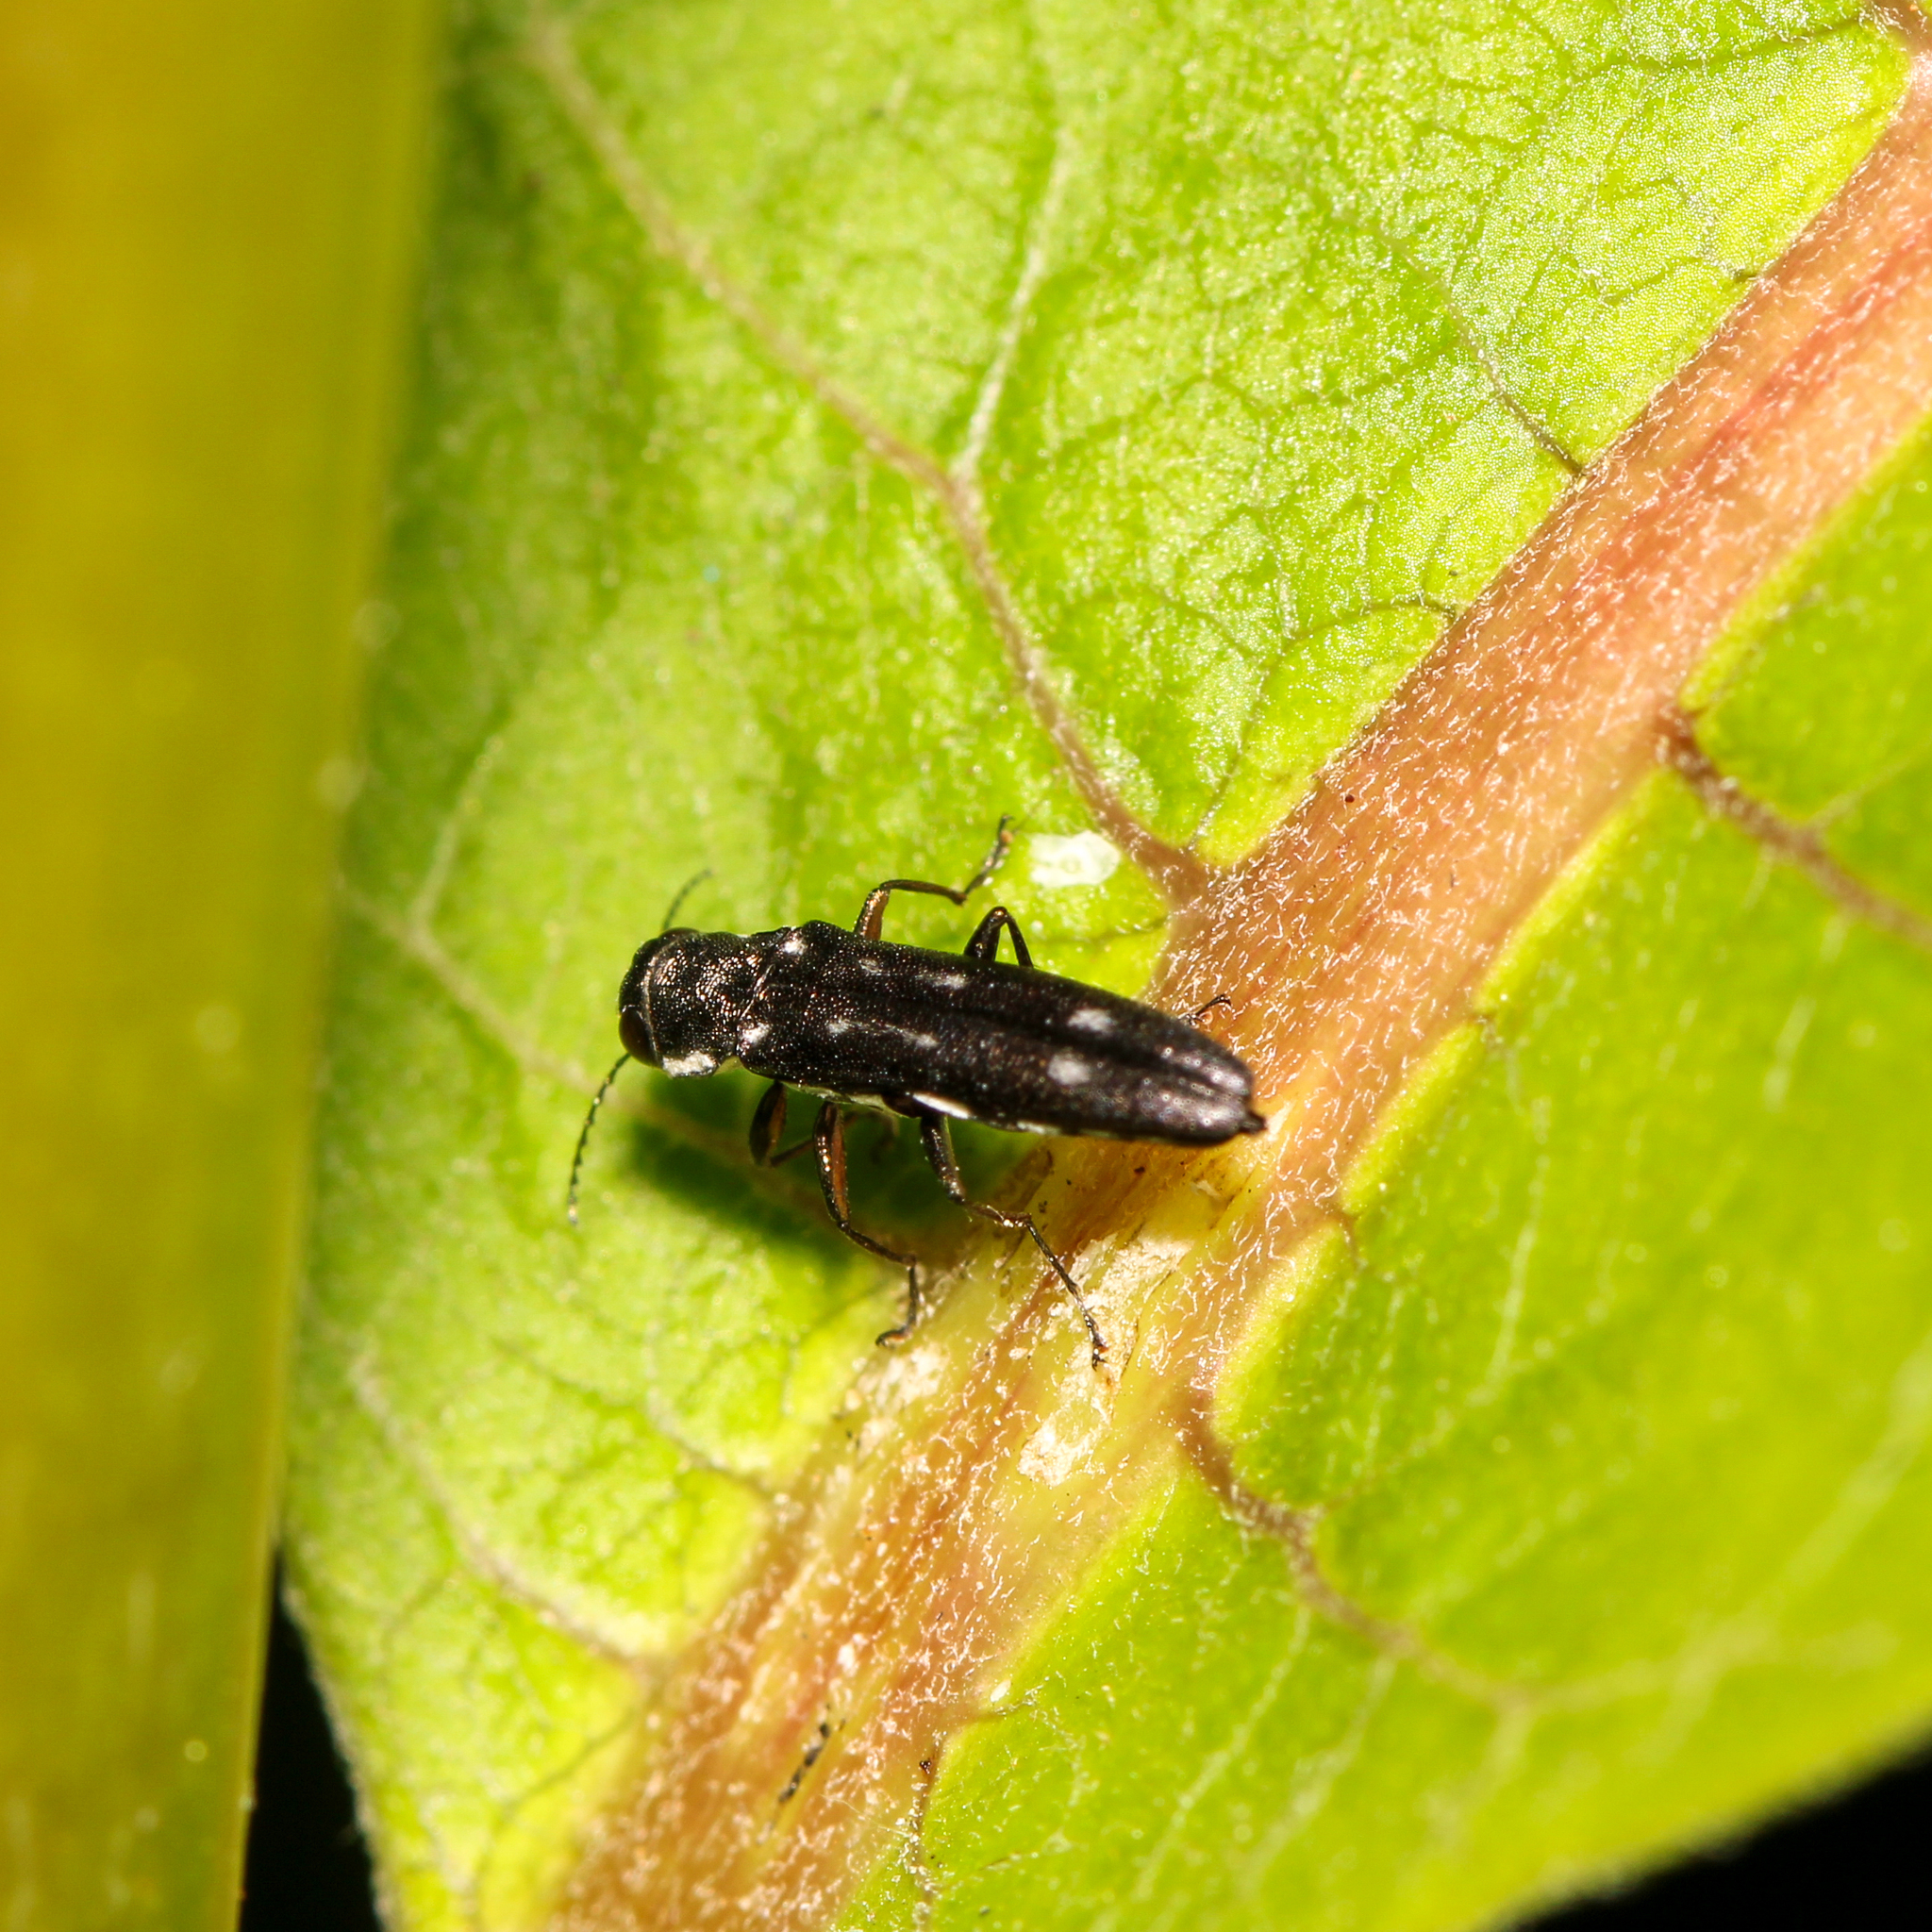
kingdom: Animalia
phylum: Arthropoda
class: Insecta
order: Coleoptera
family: Buprestidae
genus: Agrilus
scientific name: Agrilus obsoletoguttatus
